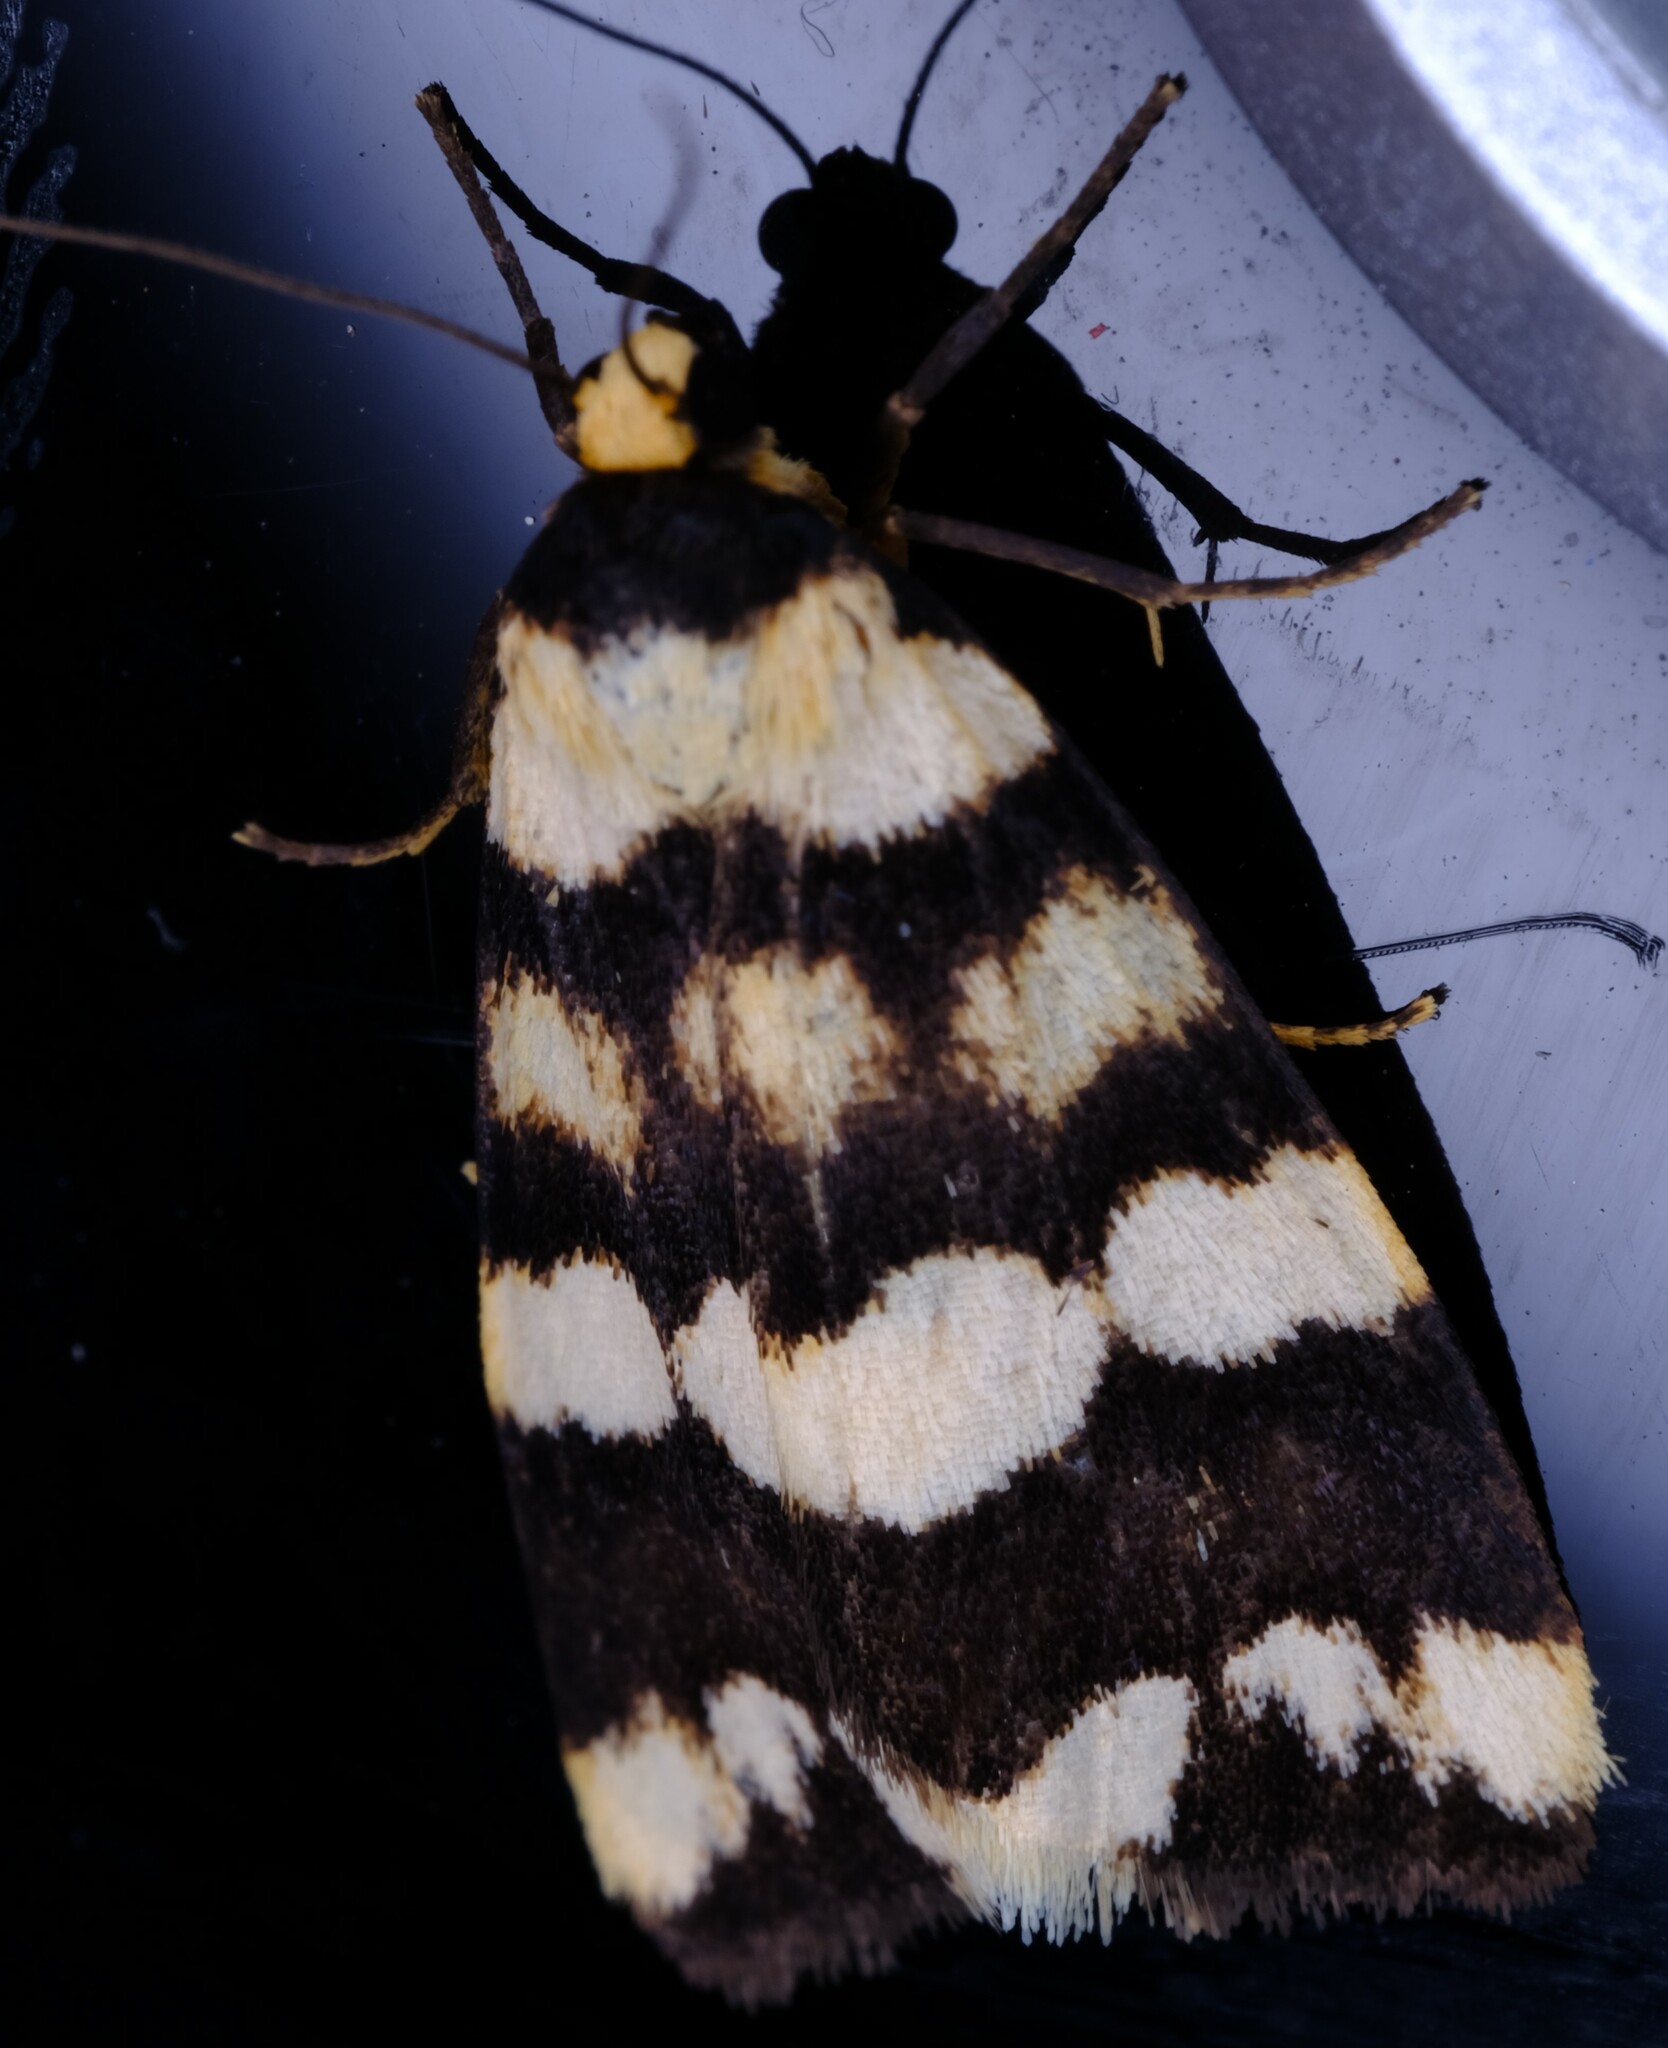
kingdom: Animalia
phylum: Arthropoda
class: Insecta
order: Lepidoptera
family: Erebidae
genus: Termessa
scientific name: Termessa gratiosa
